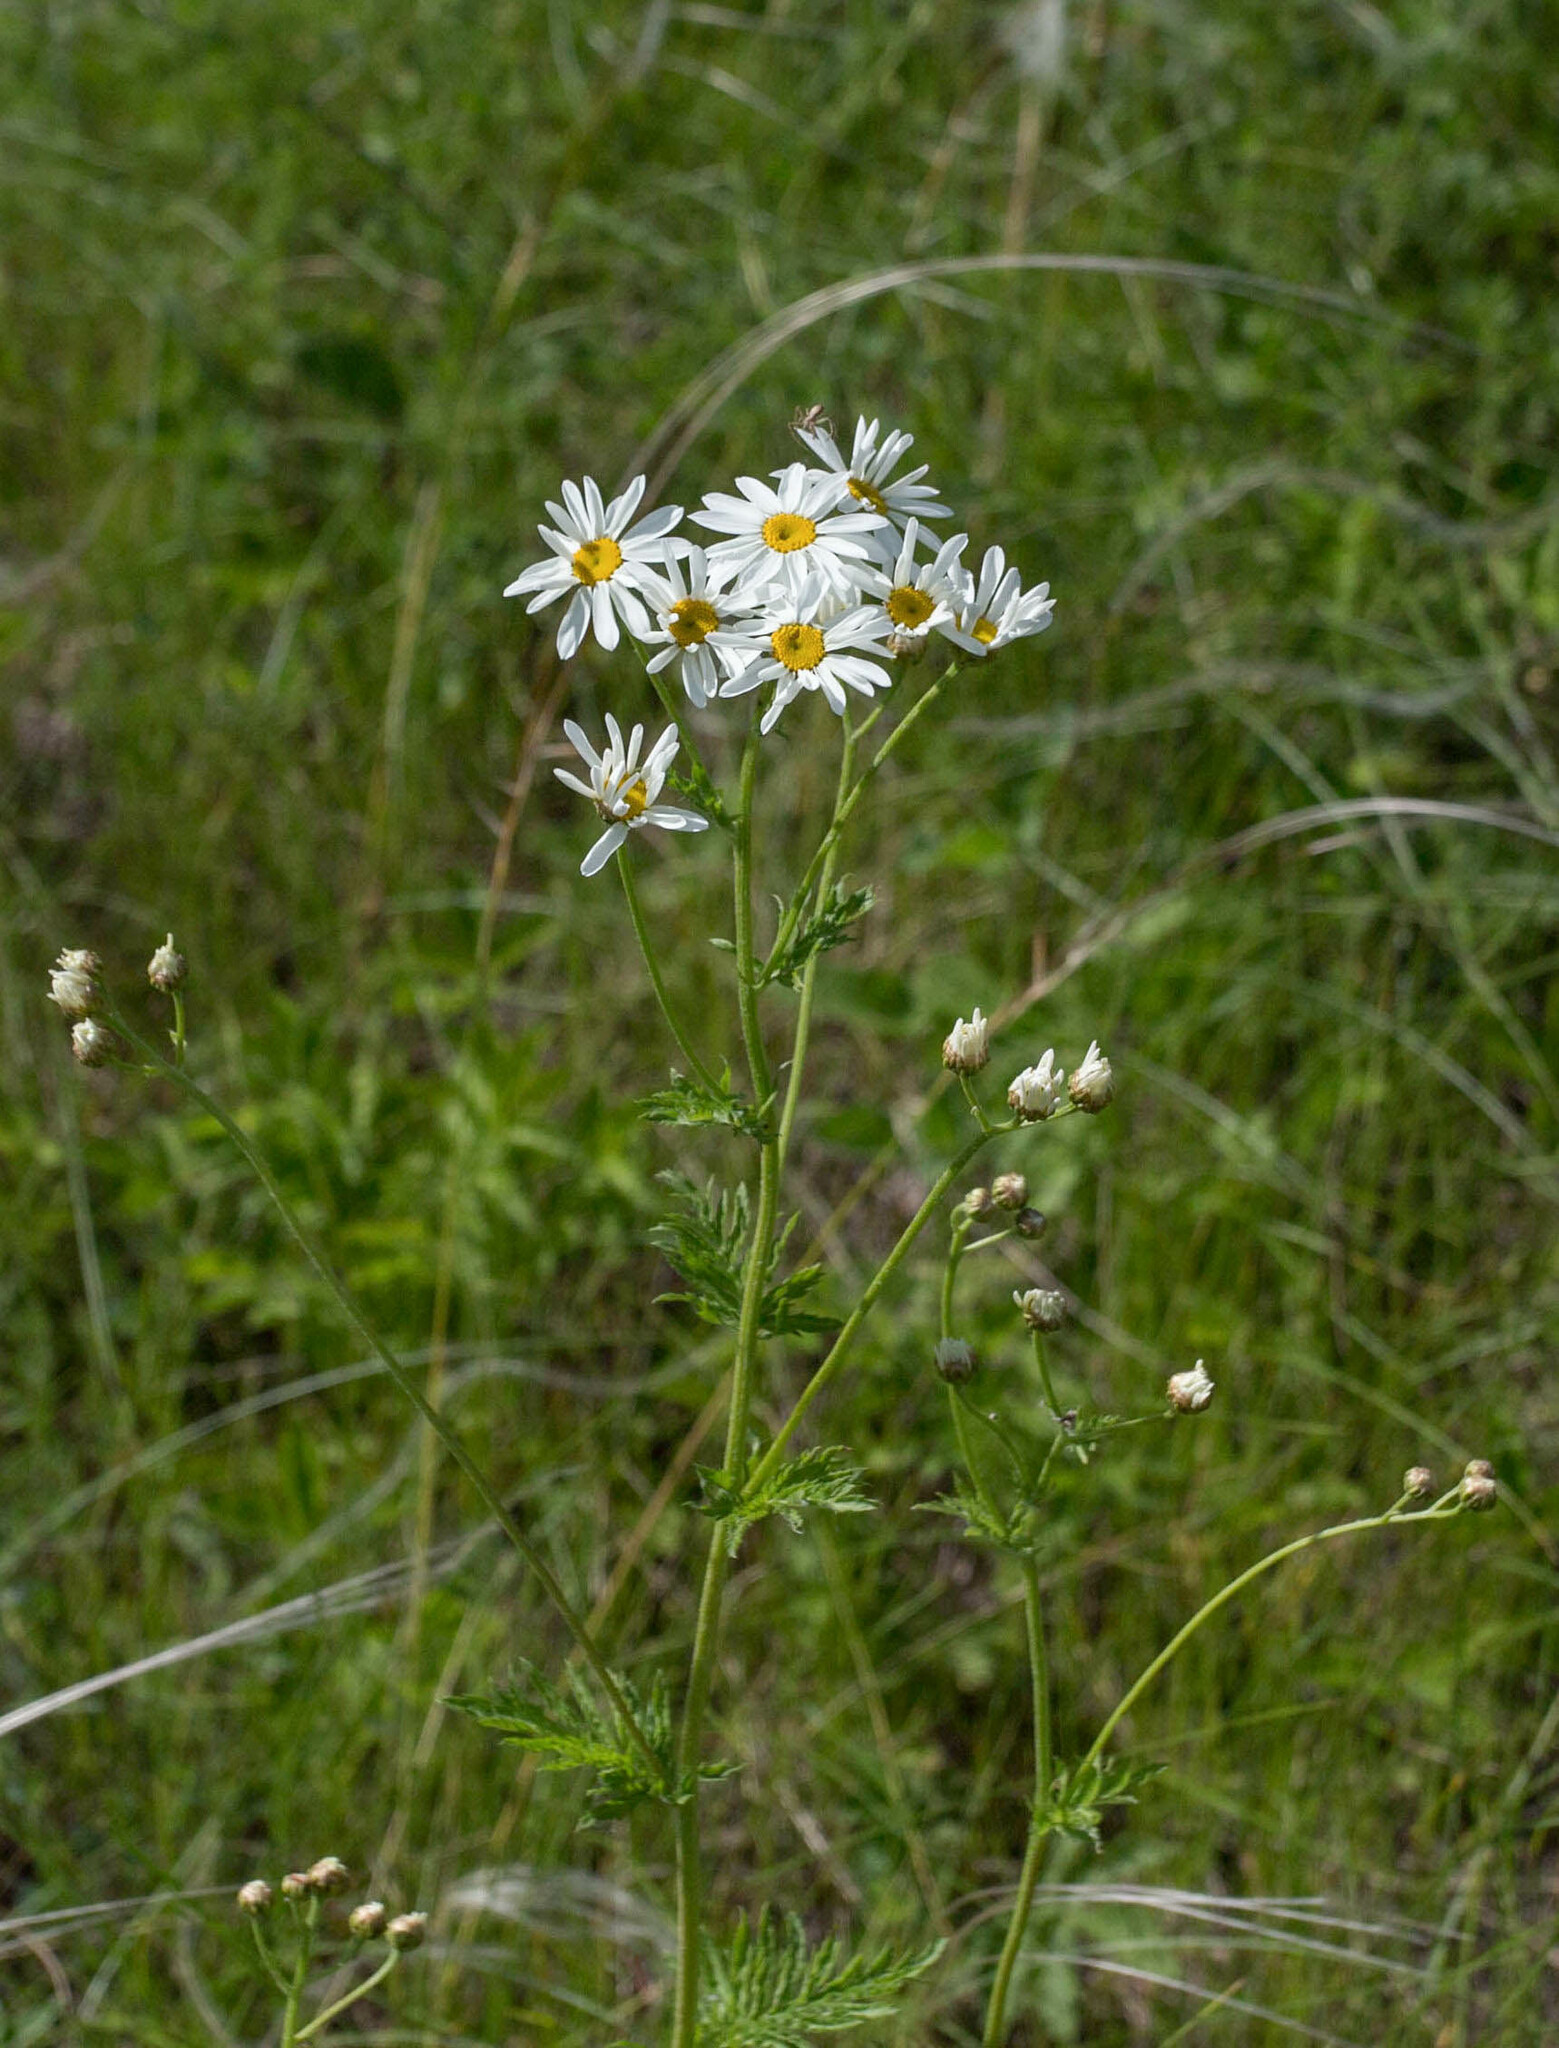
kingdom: Plantae
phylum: Tracheophyta
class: Magnoliopsida
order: Asterales
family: Asteraceae
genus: Tanacetum
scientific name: Tanacetum corymbosum
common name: Scentless feverfew
